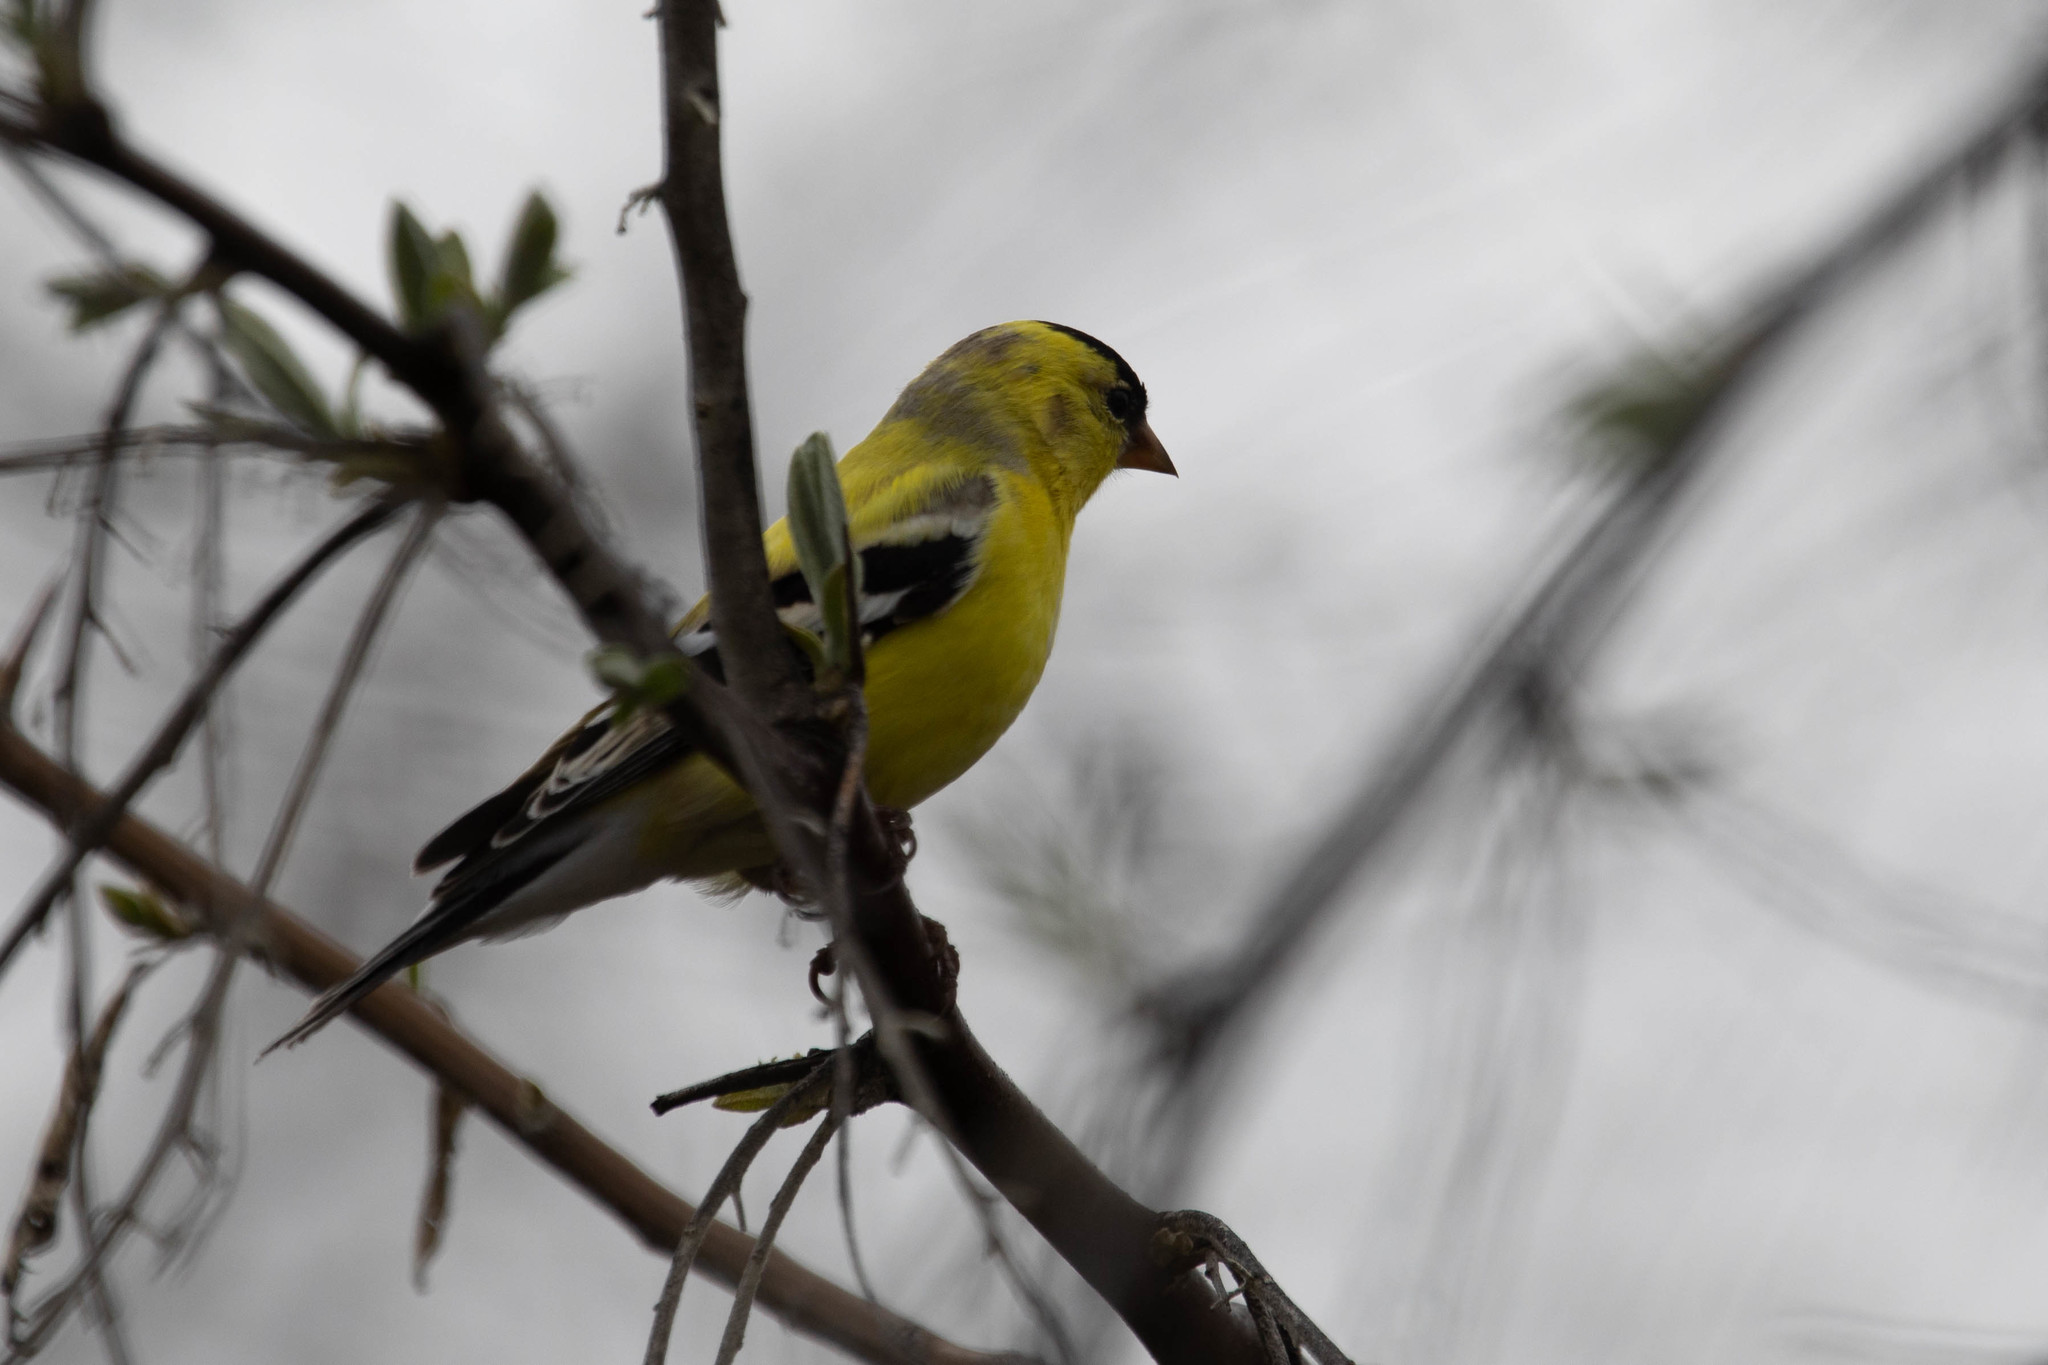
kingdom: Animalia
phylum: Chordata
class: Aves
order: Passeriformes
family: Fringillidae
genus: Spinus
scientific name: Spinus tristis
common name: American goldfinch
